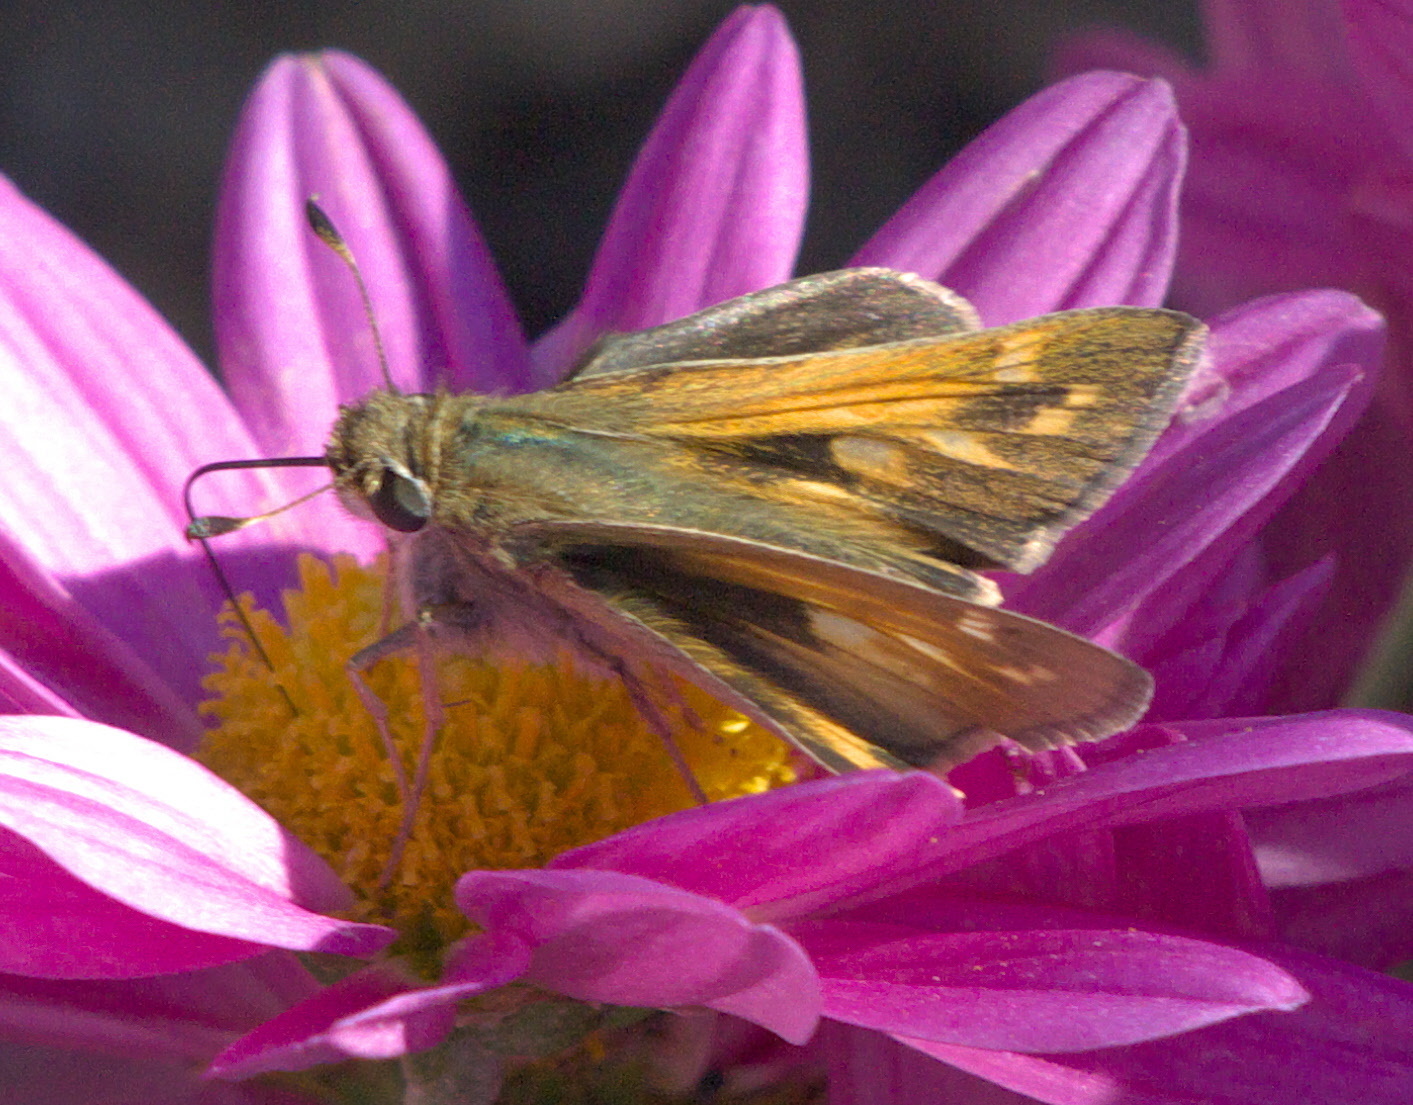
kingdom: Animalia
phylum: Arthropoda
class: Insecta
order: Lepidoptera
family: Hesperiidae
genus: Atalopedes
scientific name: Atalopedes
